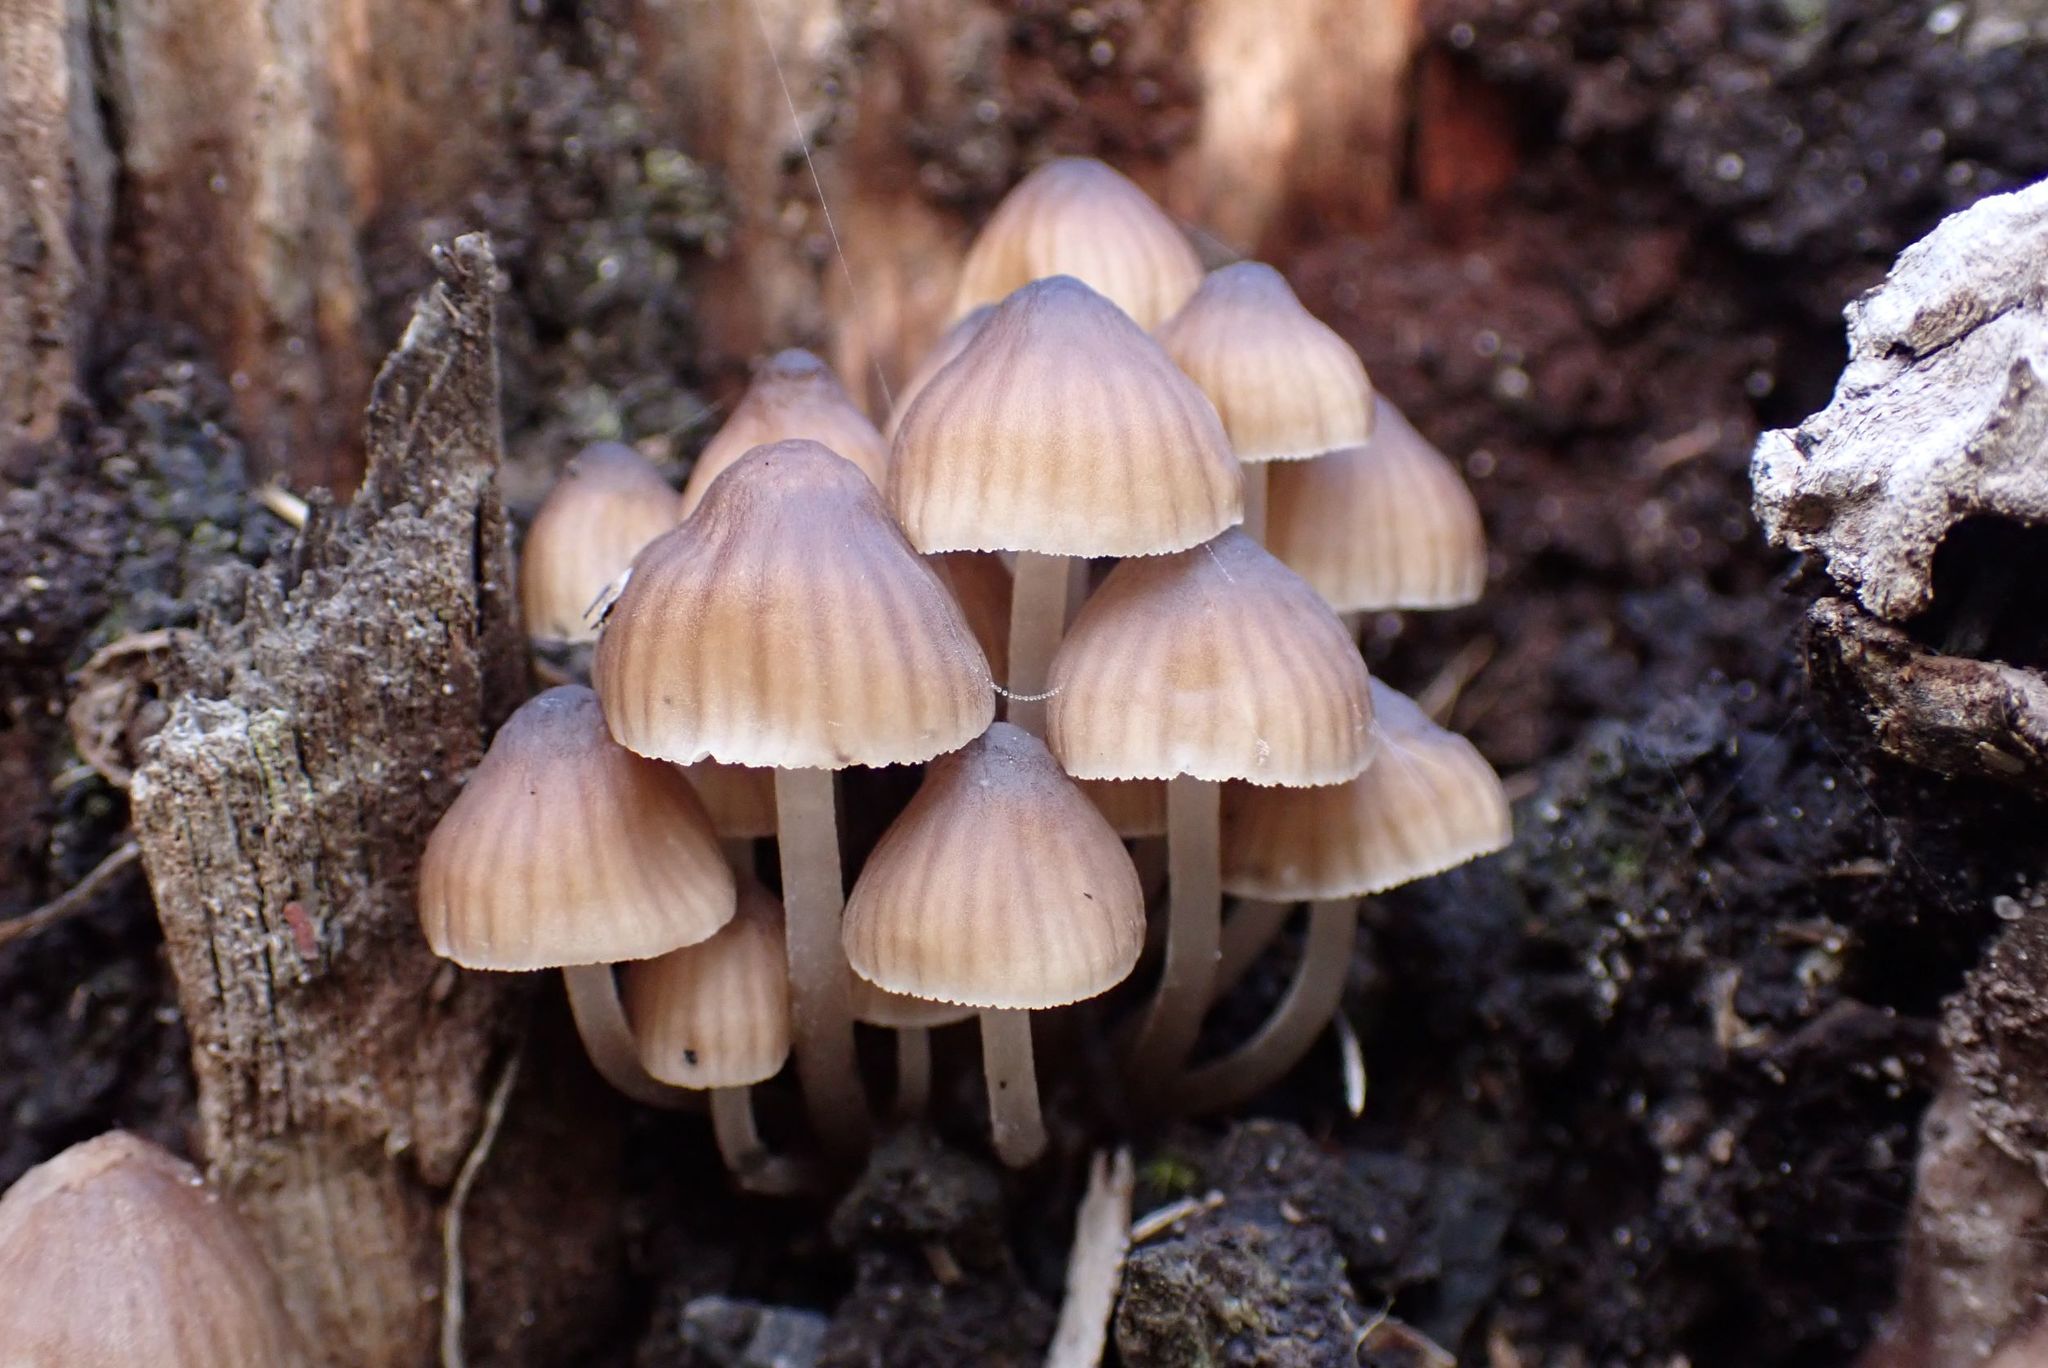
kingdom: Fungi
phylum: Basidiomycota
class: Agaricomycetes
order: Agaricales
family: Mycenaceae
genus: Mycena
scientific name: Mycena clarkeana
